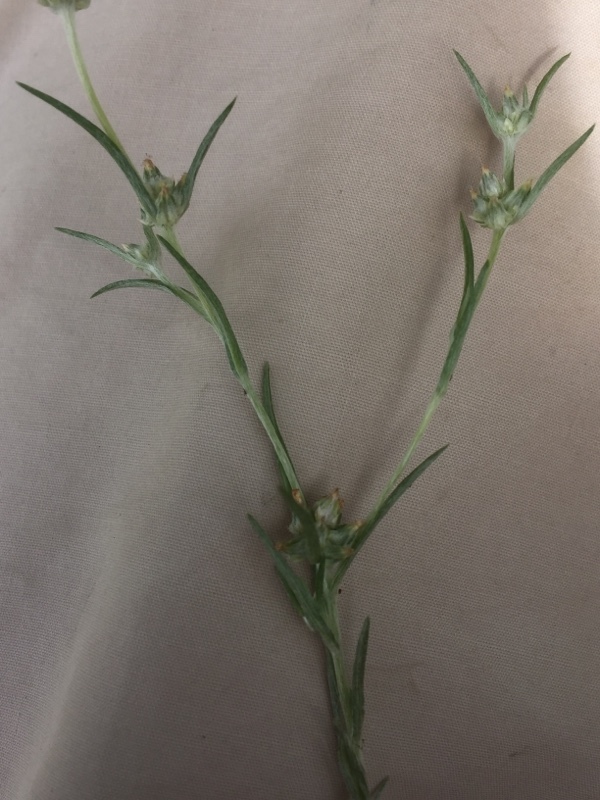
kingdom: Plantae
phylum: Tracheophyta
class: Magnoliopsida
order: Asterales
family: Asteraceae
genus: Logfia
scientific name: Logfia gallica
